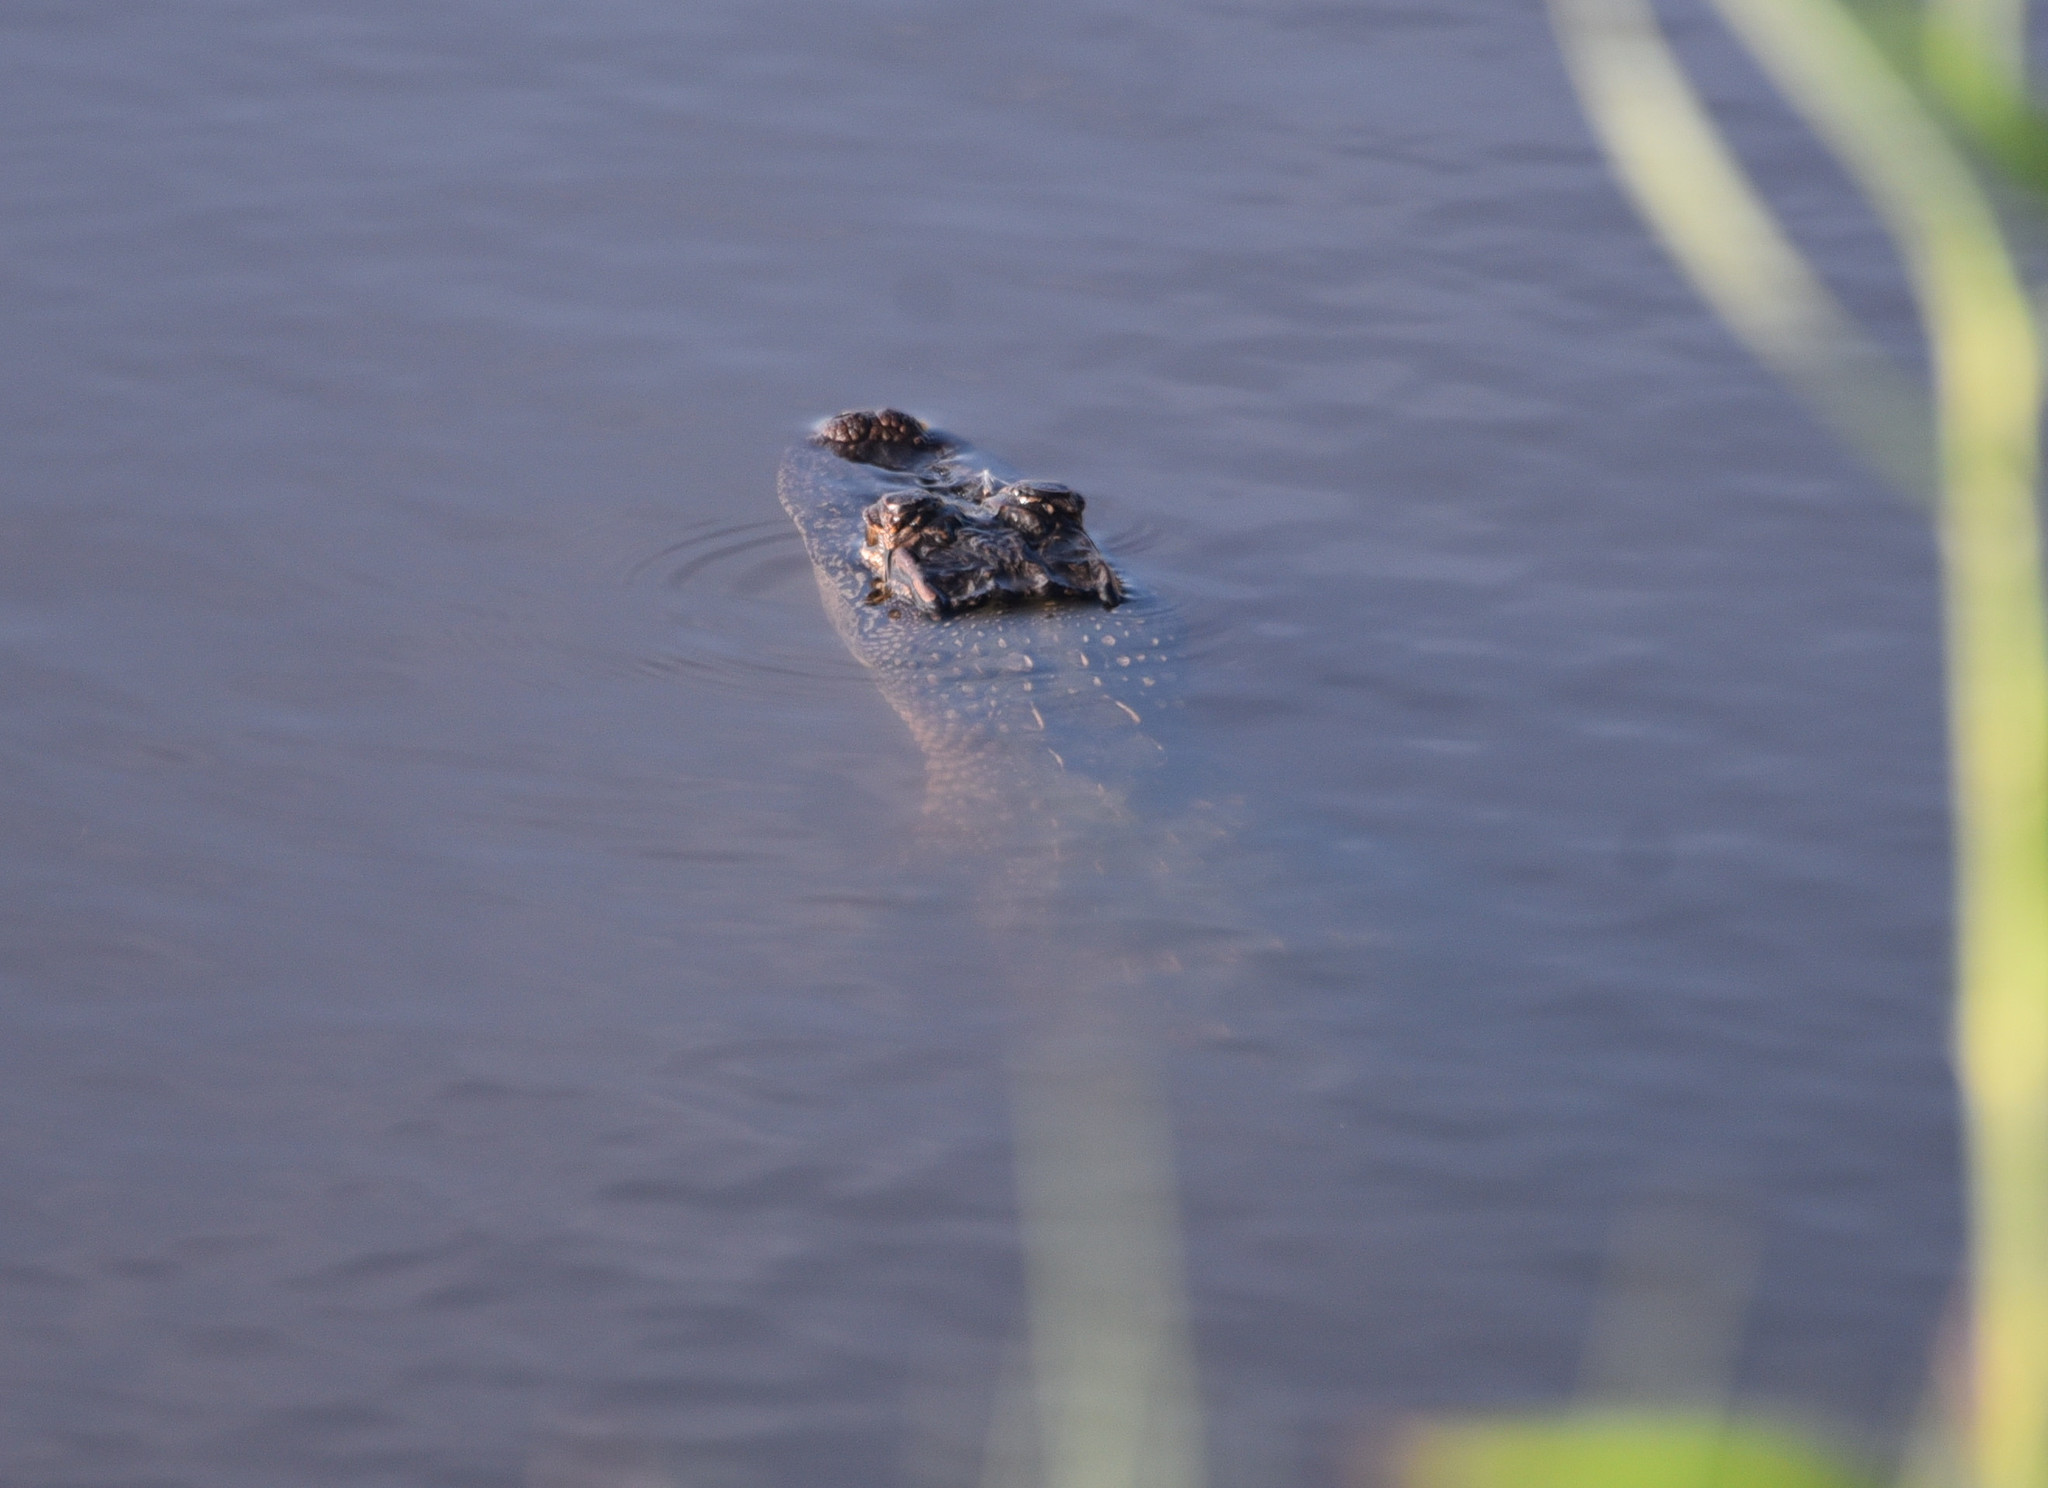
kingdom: Animalia
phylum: Chordata
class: Crocodylia
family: Alligatoridae
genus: Alligator
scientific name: Alligator mississippiensis
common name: American alligator
